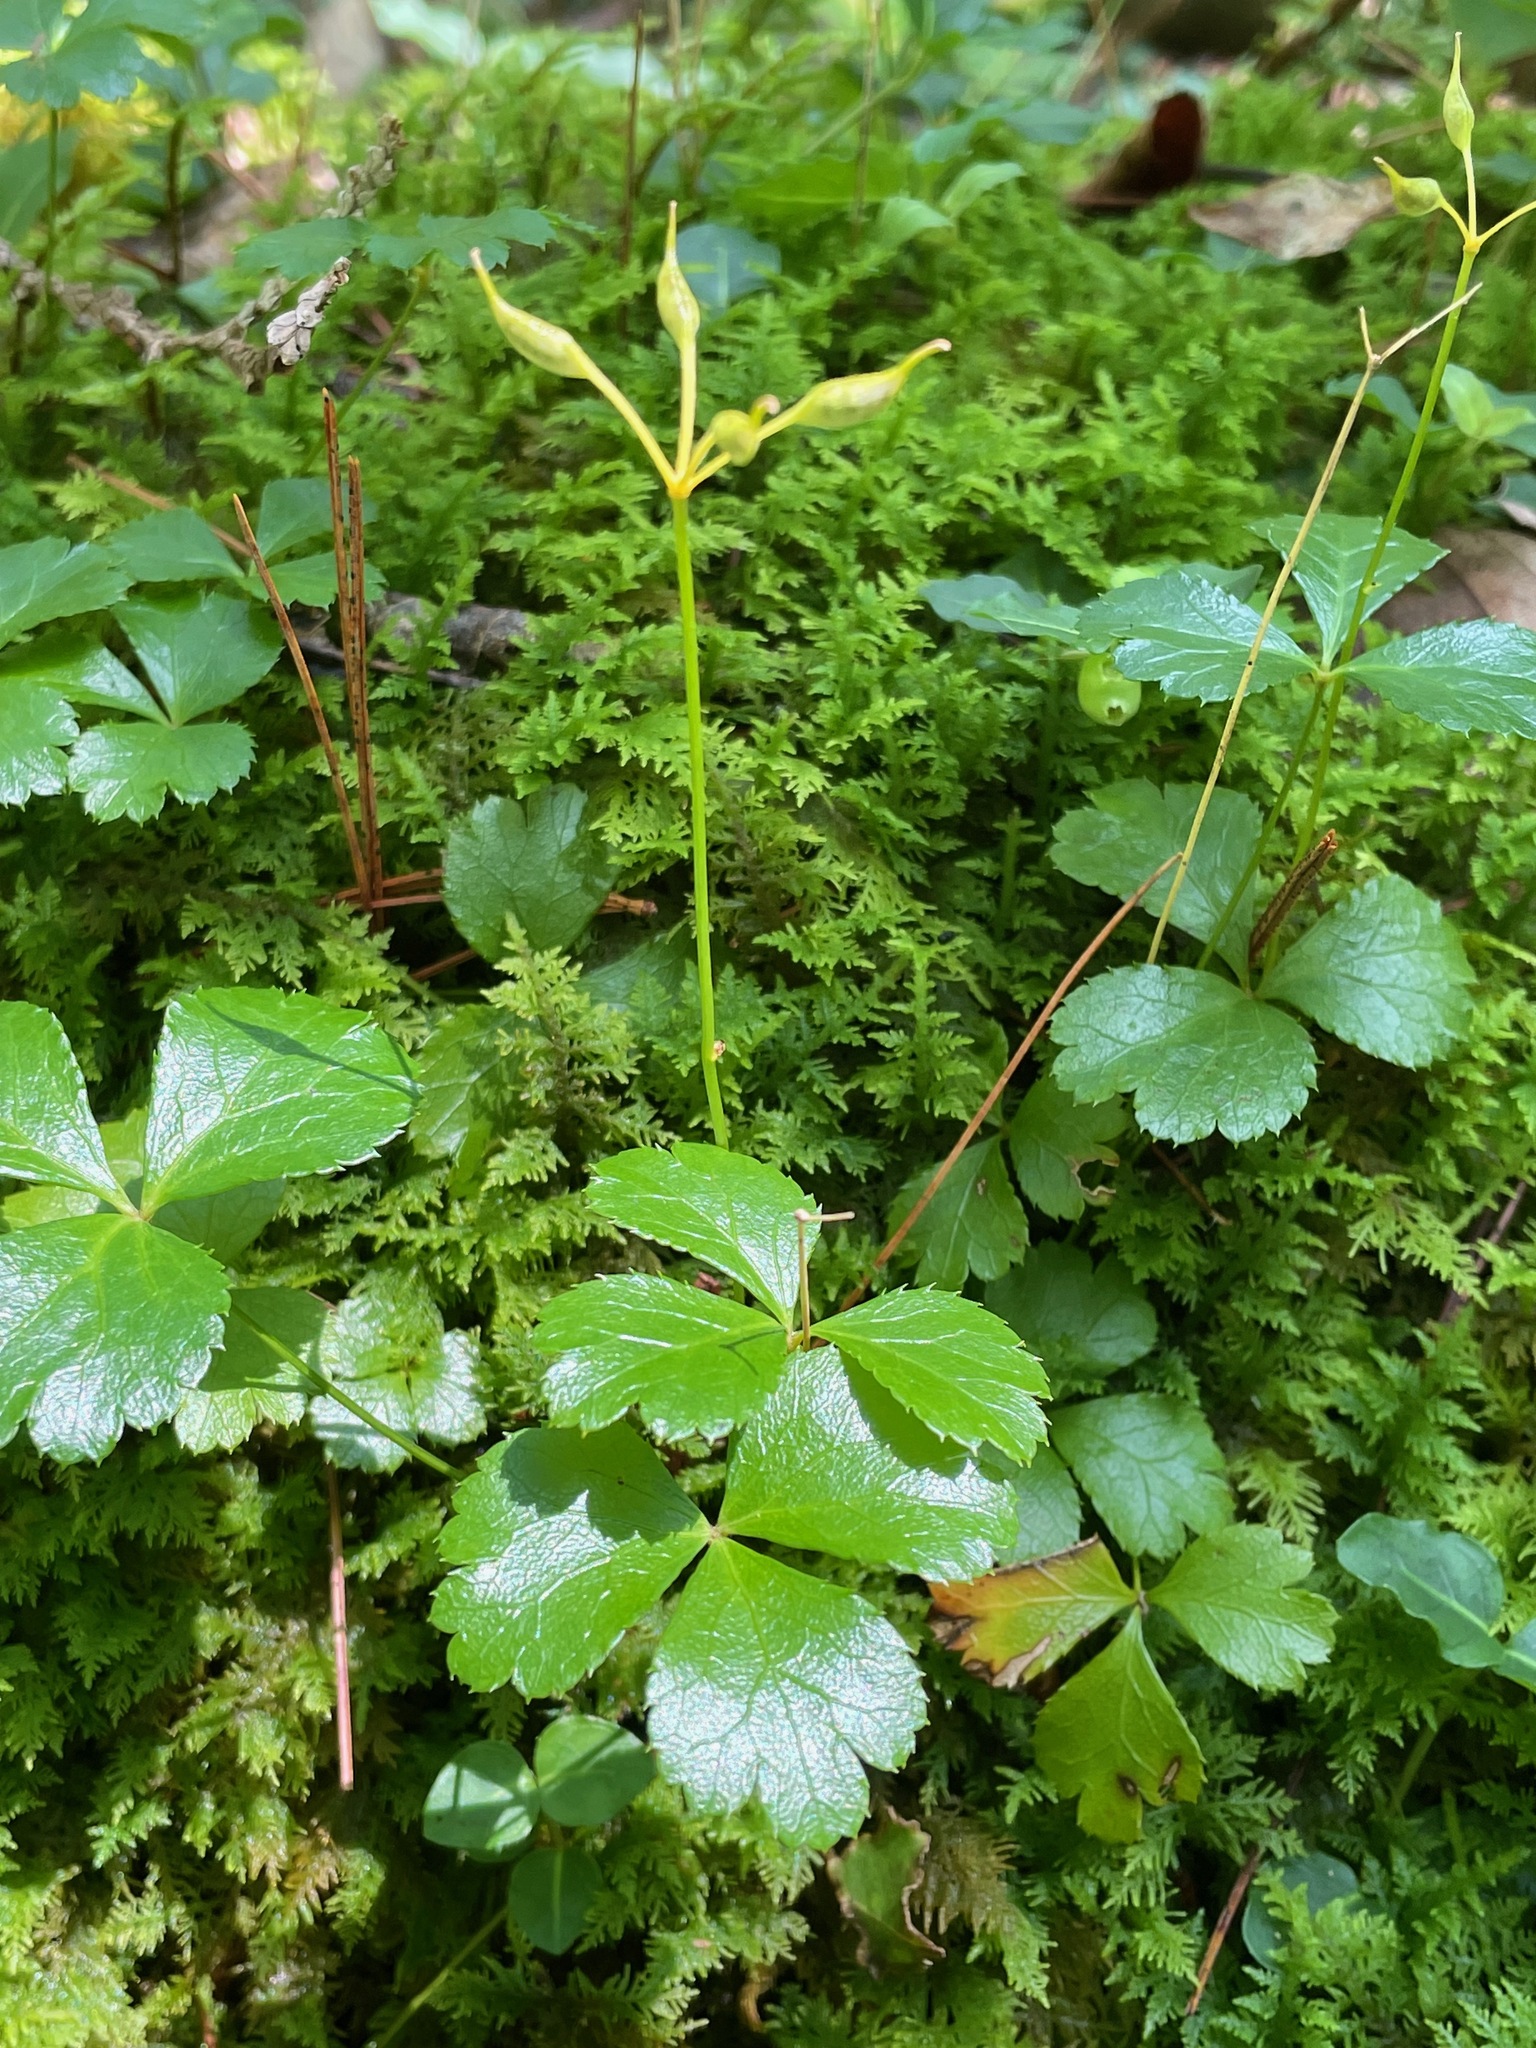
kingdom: Plantae
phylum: Tracheophyta
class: Magnoliopsida
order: Ranunculales
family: Ranunculaceae
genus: Coptis
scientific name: Coptis trifolia
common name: Canker-root
